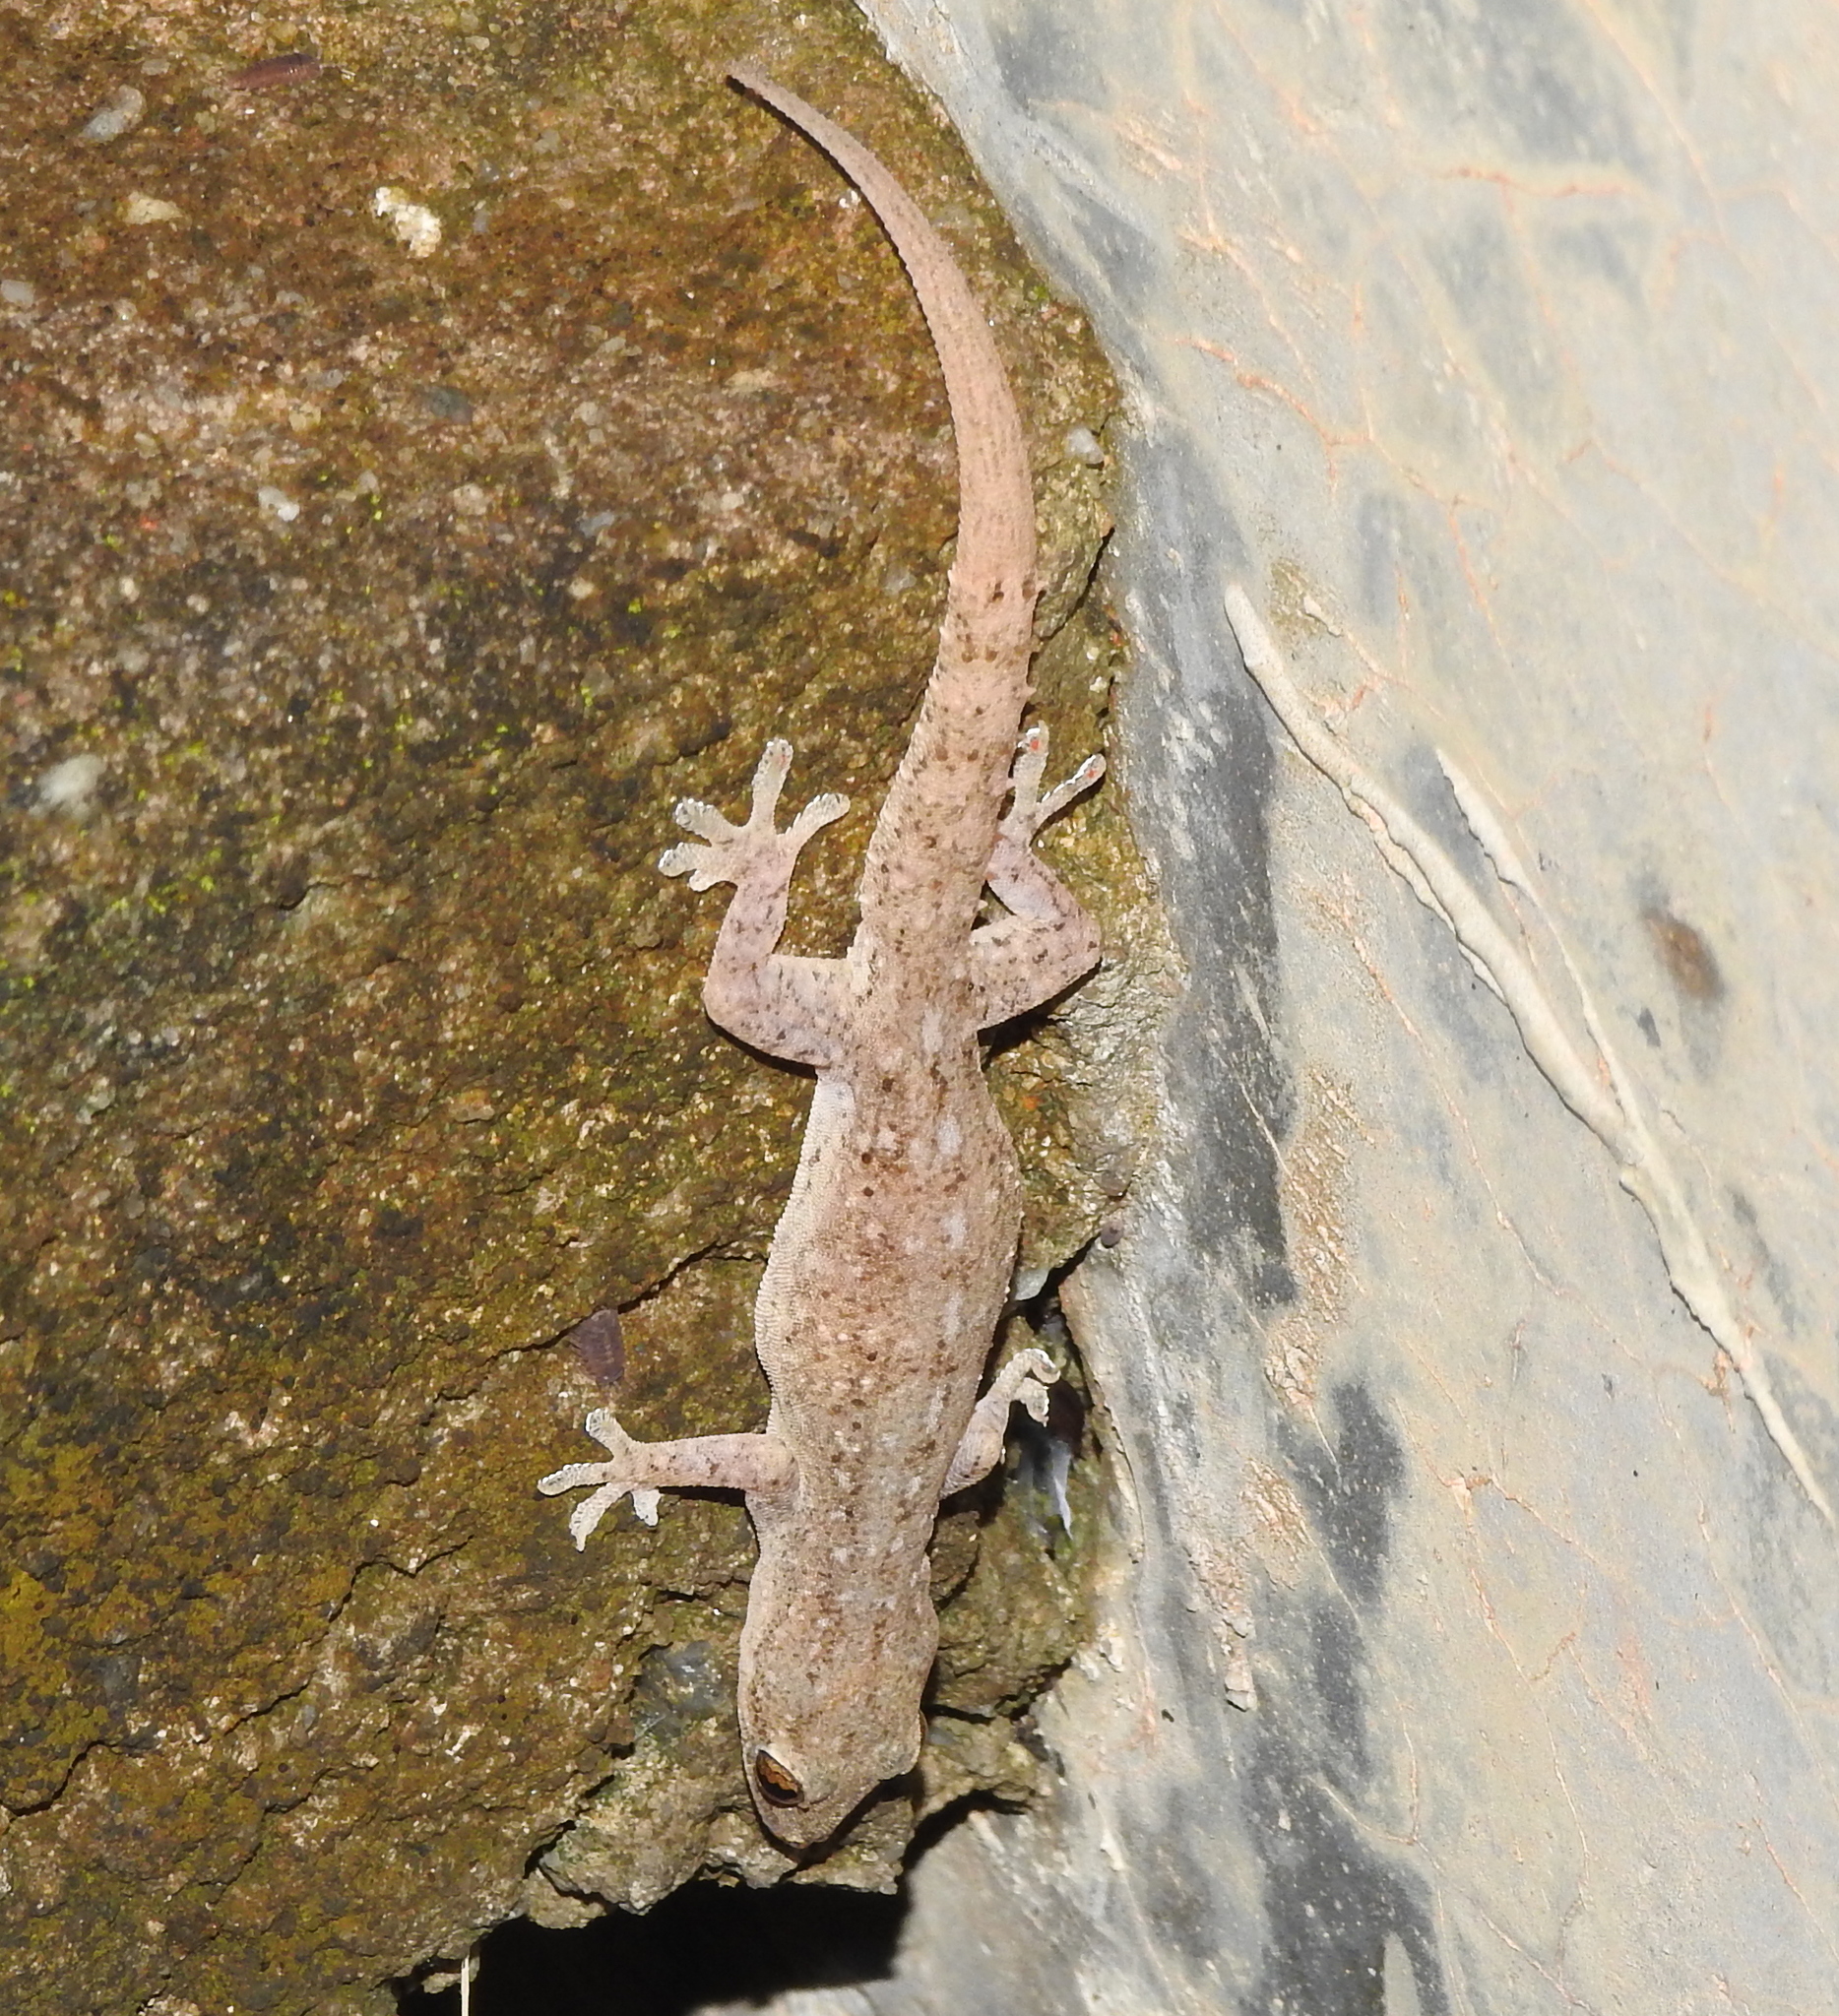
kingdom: Animalia
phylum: Chordata
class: Squamata
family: Gekkonidae
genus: Hemidactylus
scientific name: Hemidactylus frenatus
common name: Common house gecko
